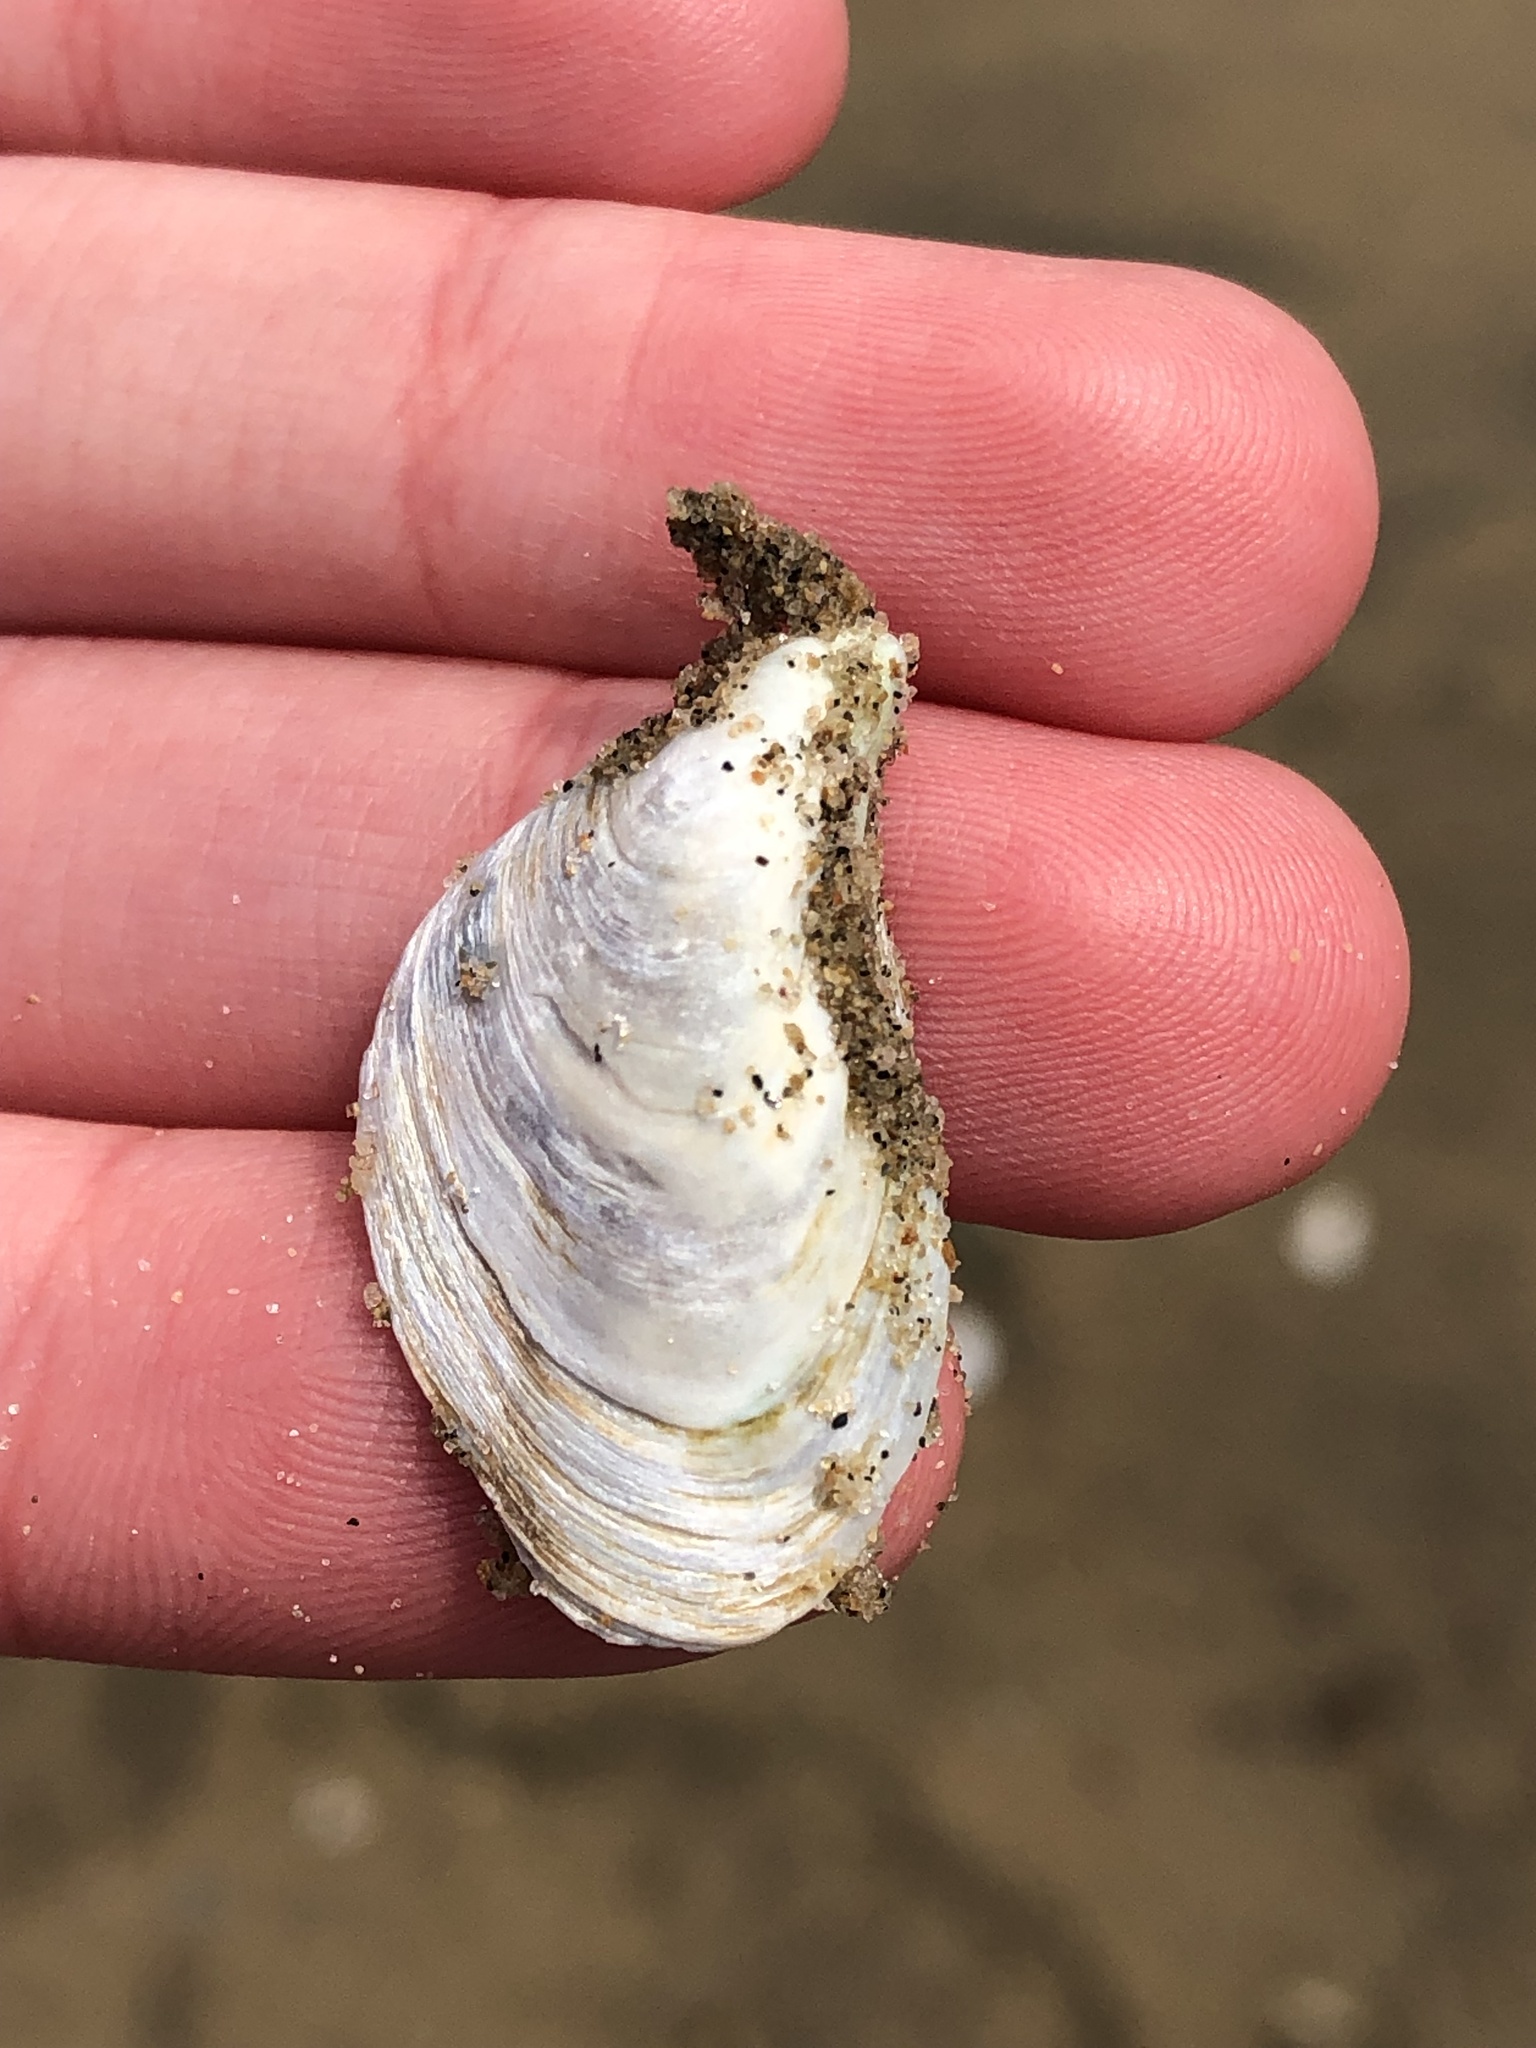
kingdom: Animalia
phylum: Mollusca
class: Bivalvia
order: Myida
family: Dreissenidae
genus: Dreissena
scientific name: Dreissena bugensis
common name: Quagga mussel
